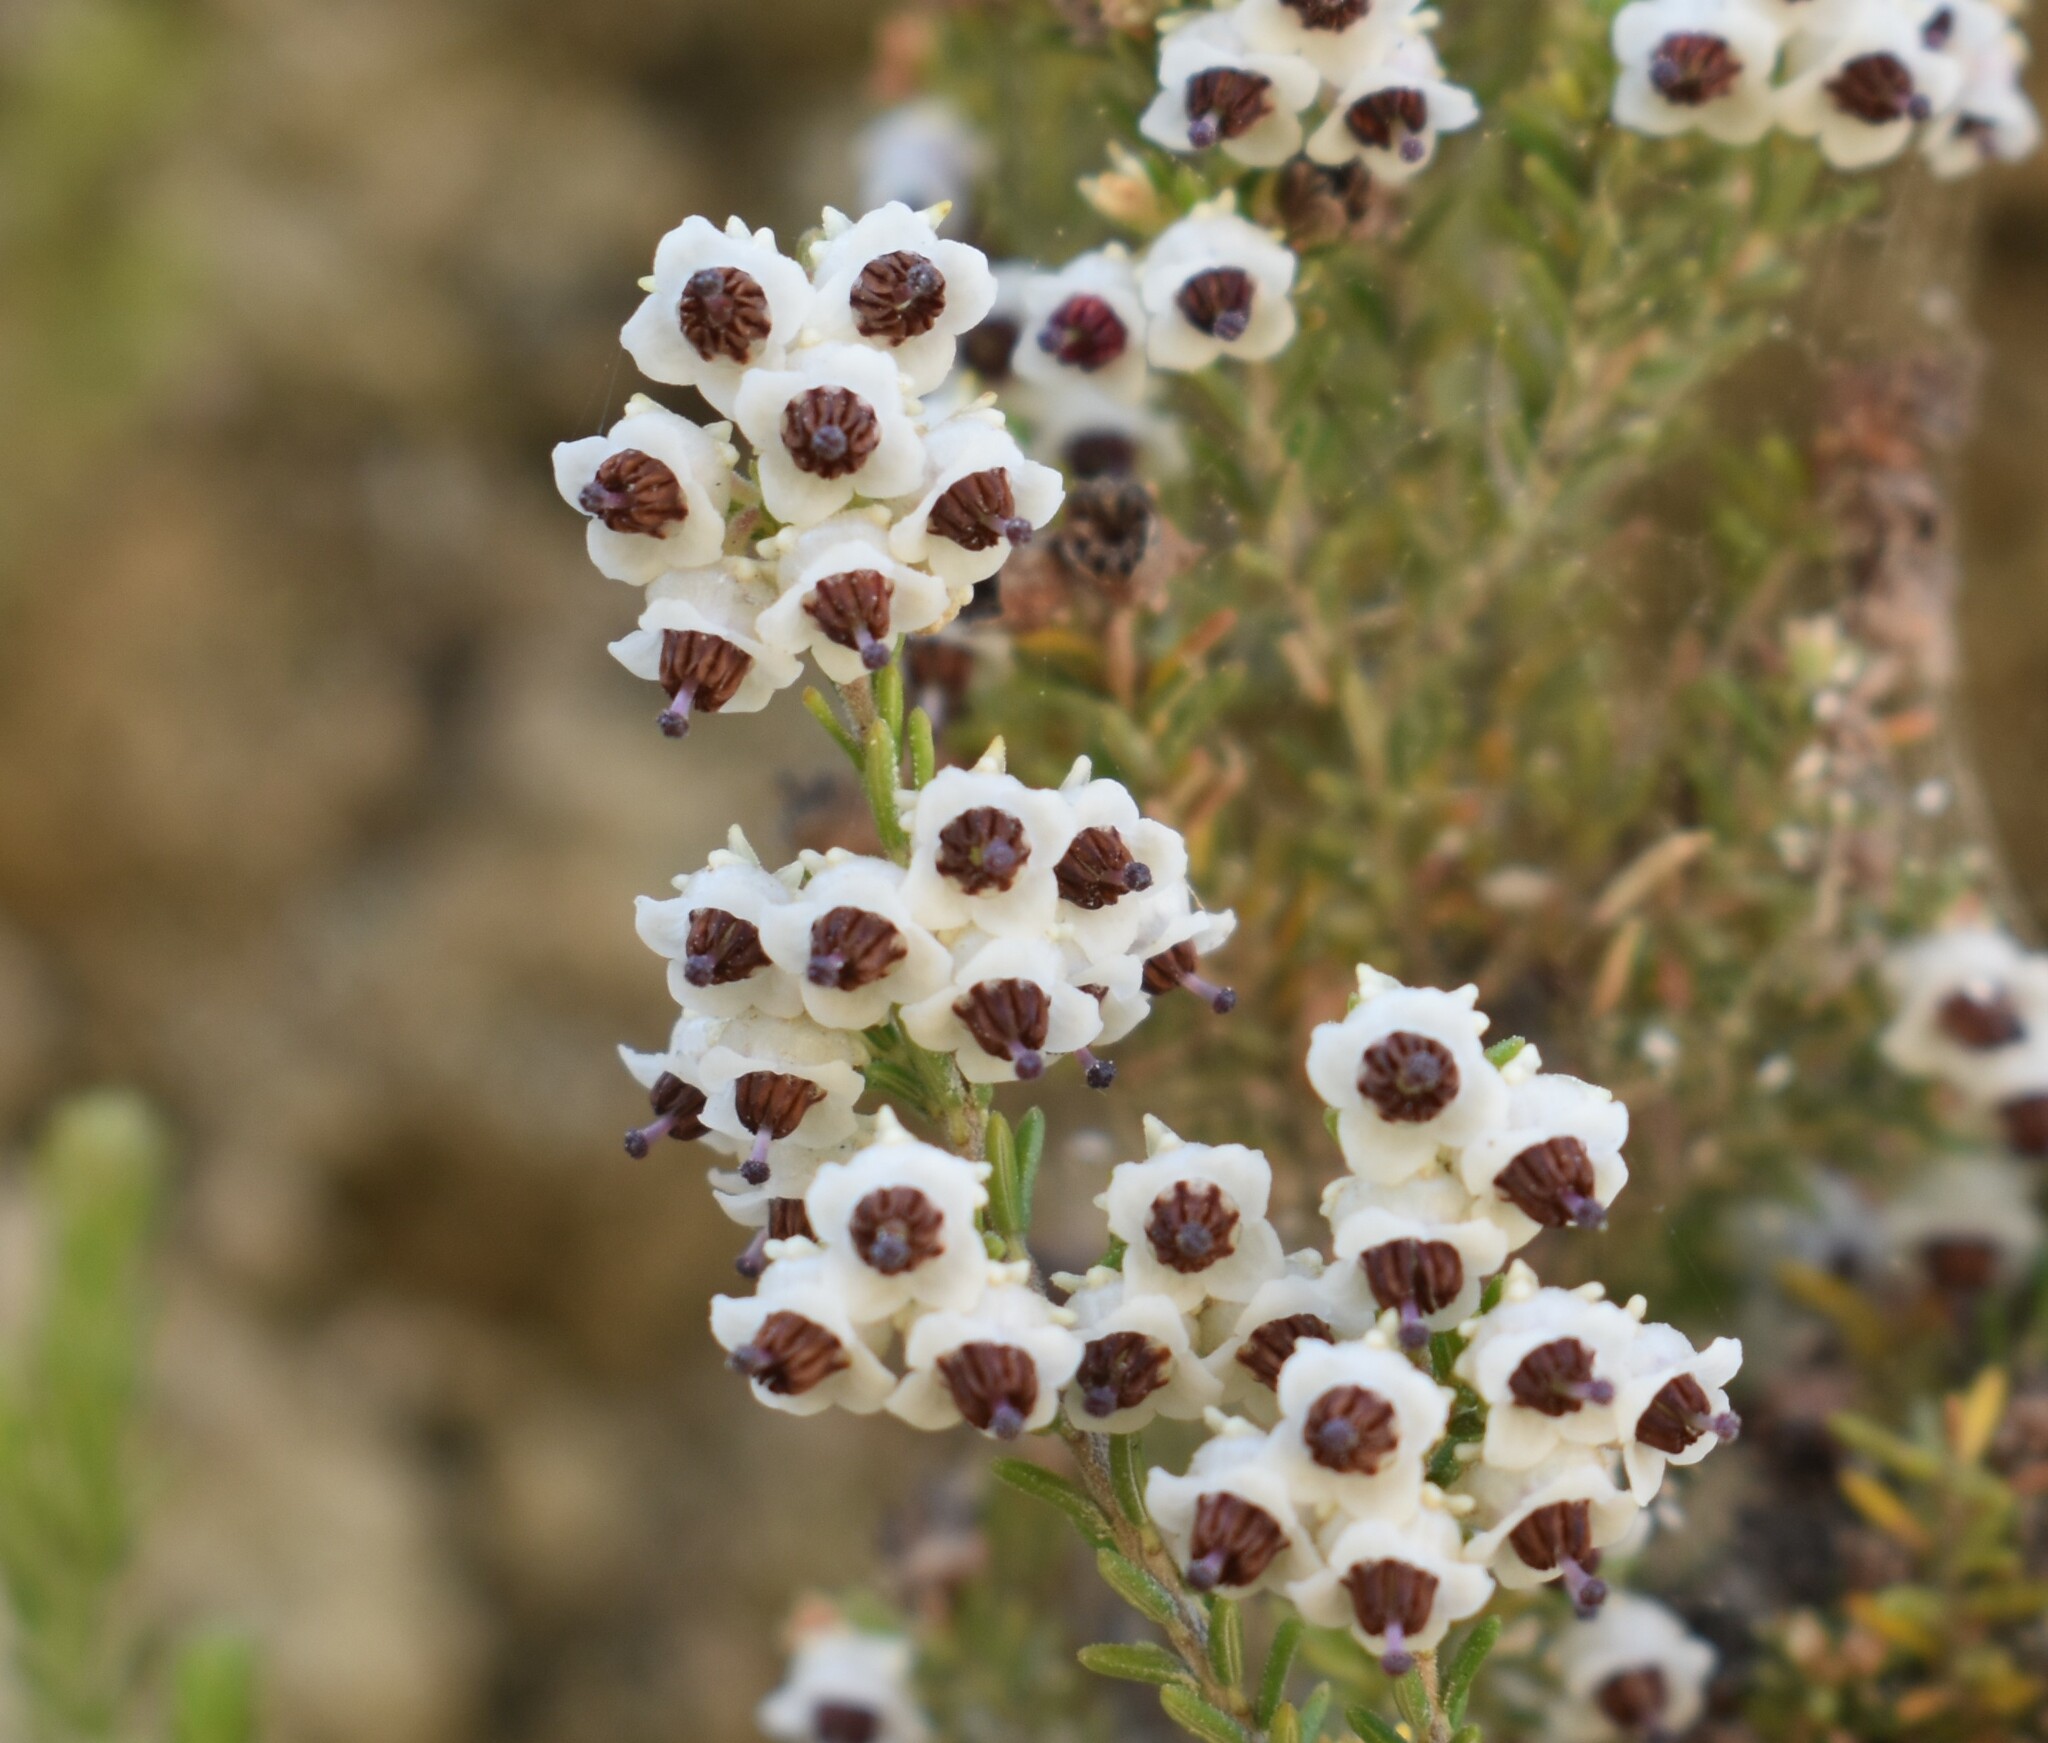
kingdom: Plantae
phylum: Tracheophyta
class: Magnoliopsida
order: Ericales
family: Ericaceae
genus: Erica
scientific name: Erica zwartbergensis
